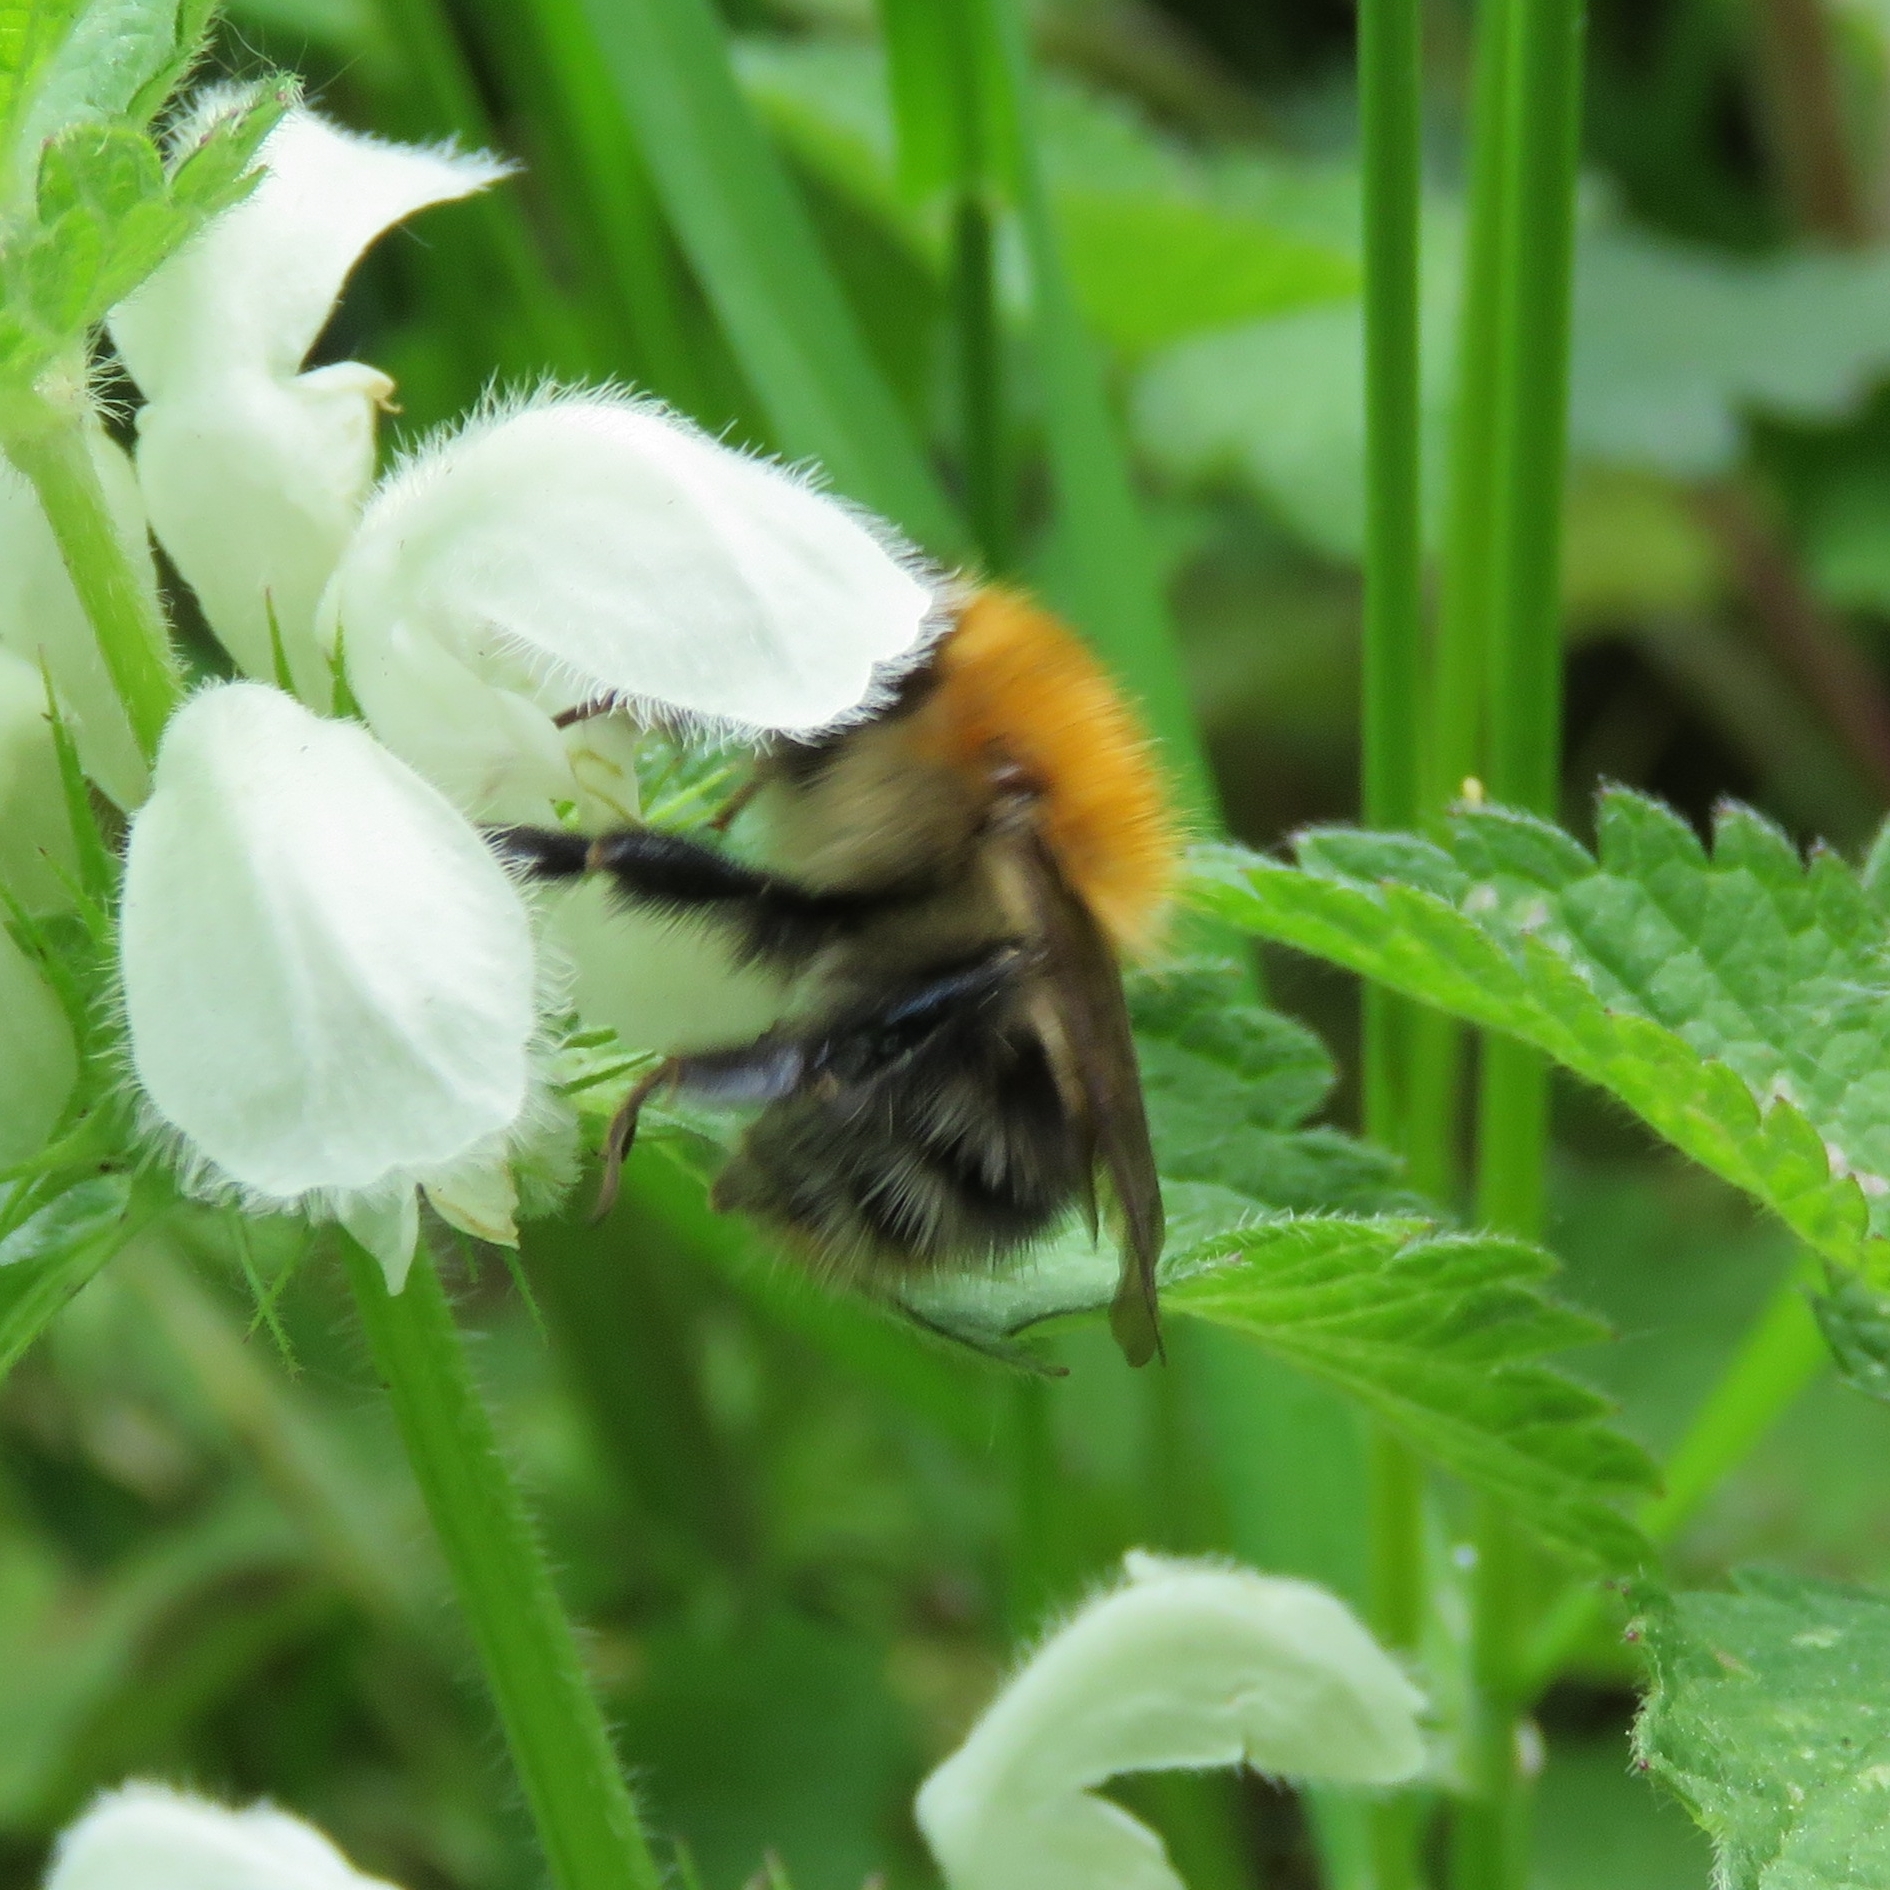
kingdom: Animalia
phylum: Arthropoda
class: Insecta
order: Hymenoptera
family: Apidae
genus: Bombus
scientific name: Bombus pascuorum
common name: Common carder bee
